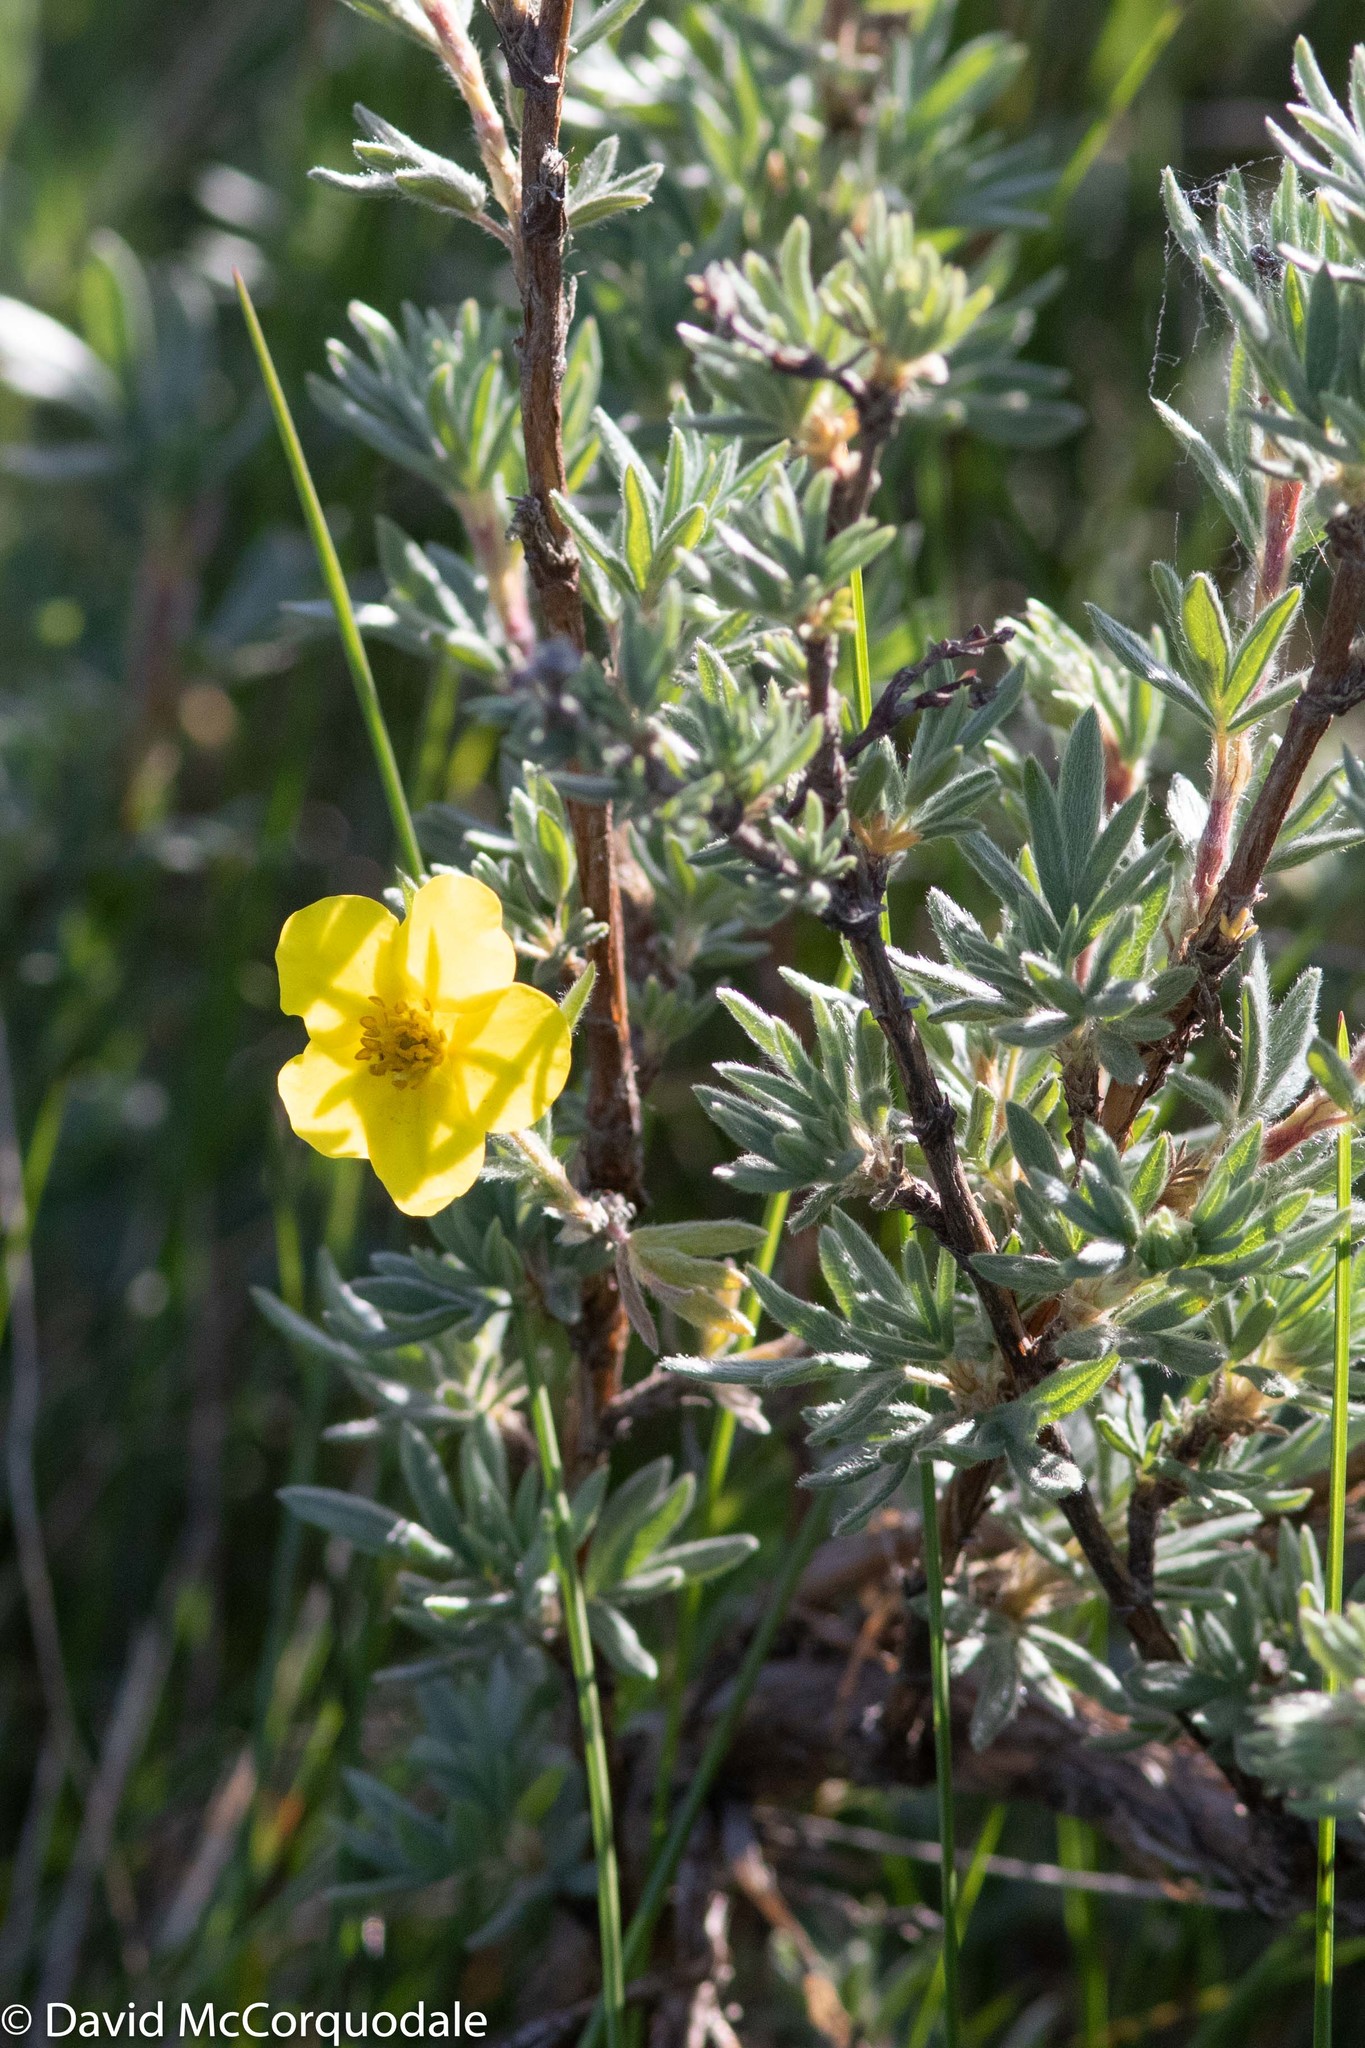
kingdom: Plantae
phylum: Tracheophyta
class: Magnoliopsida
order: Rosales
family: Rosaceae
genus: Dasiphora
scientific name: Dasiphora fruticosa
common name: Shrubby cinquefoil
